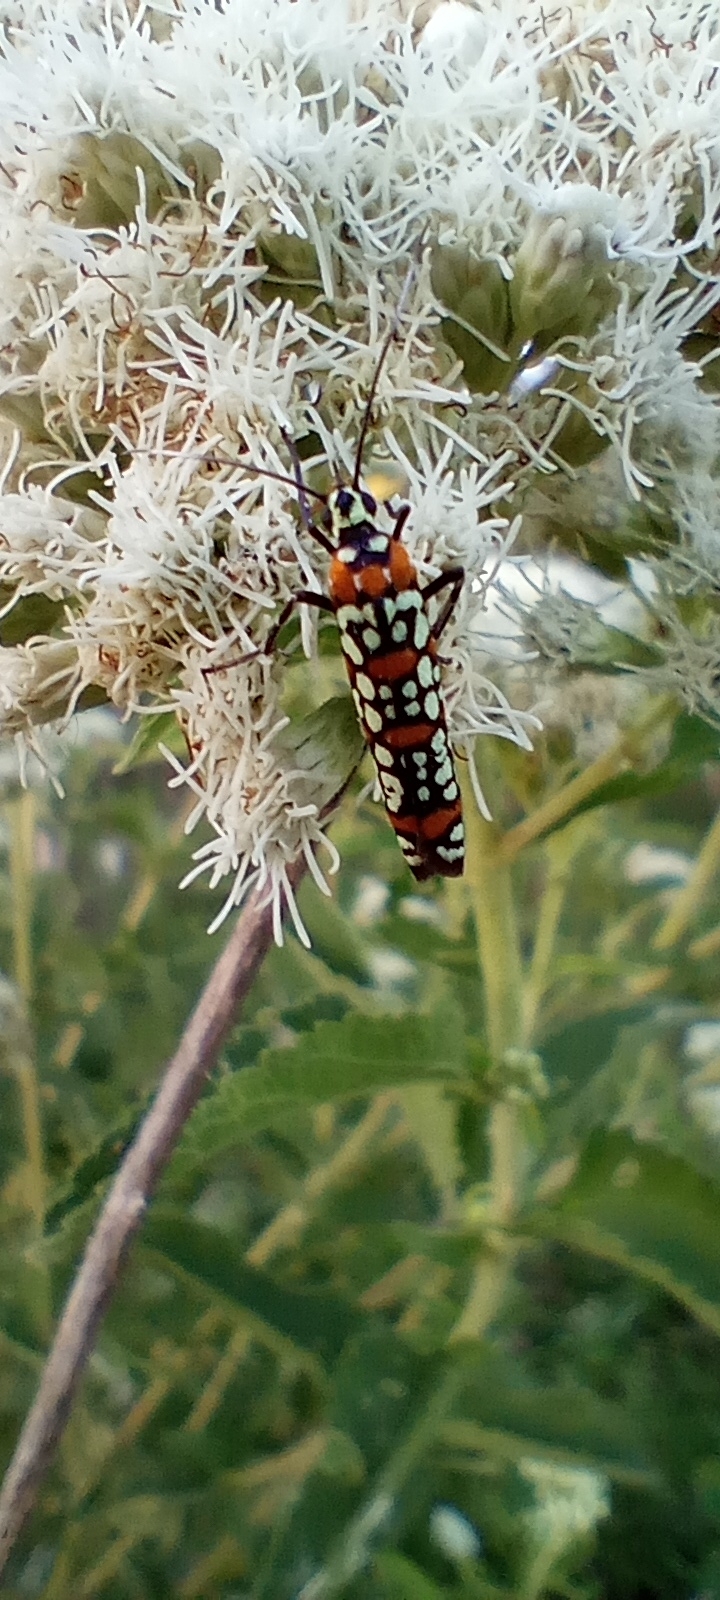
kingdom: Animalia
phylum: Arthropoda
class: Insecta
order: Lepidoptera
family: Attevidae
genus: Atteva
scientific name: Atteva punctella
